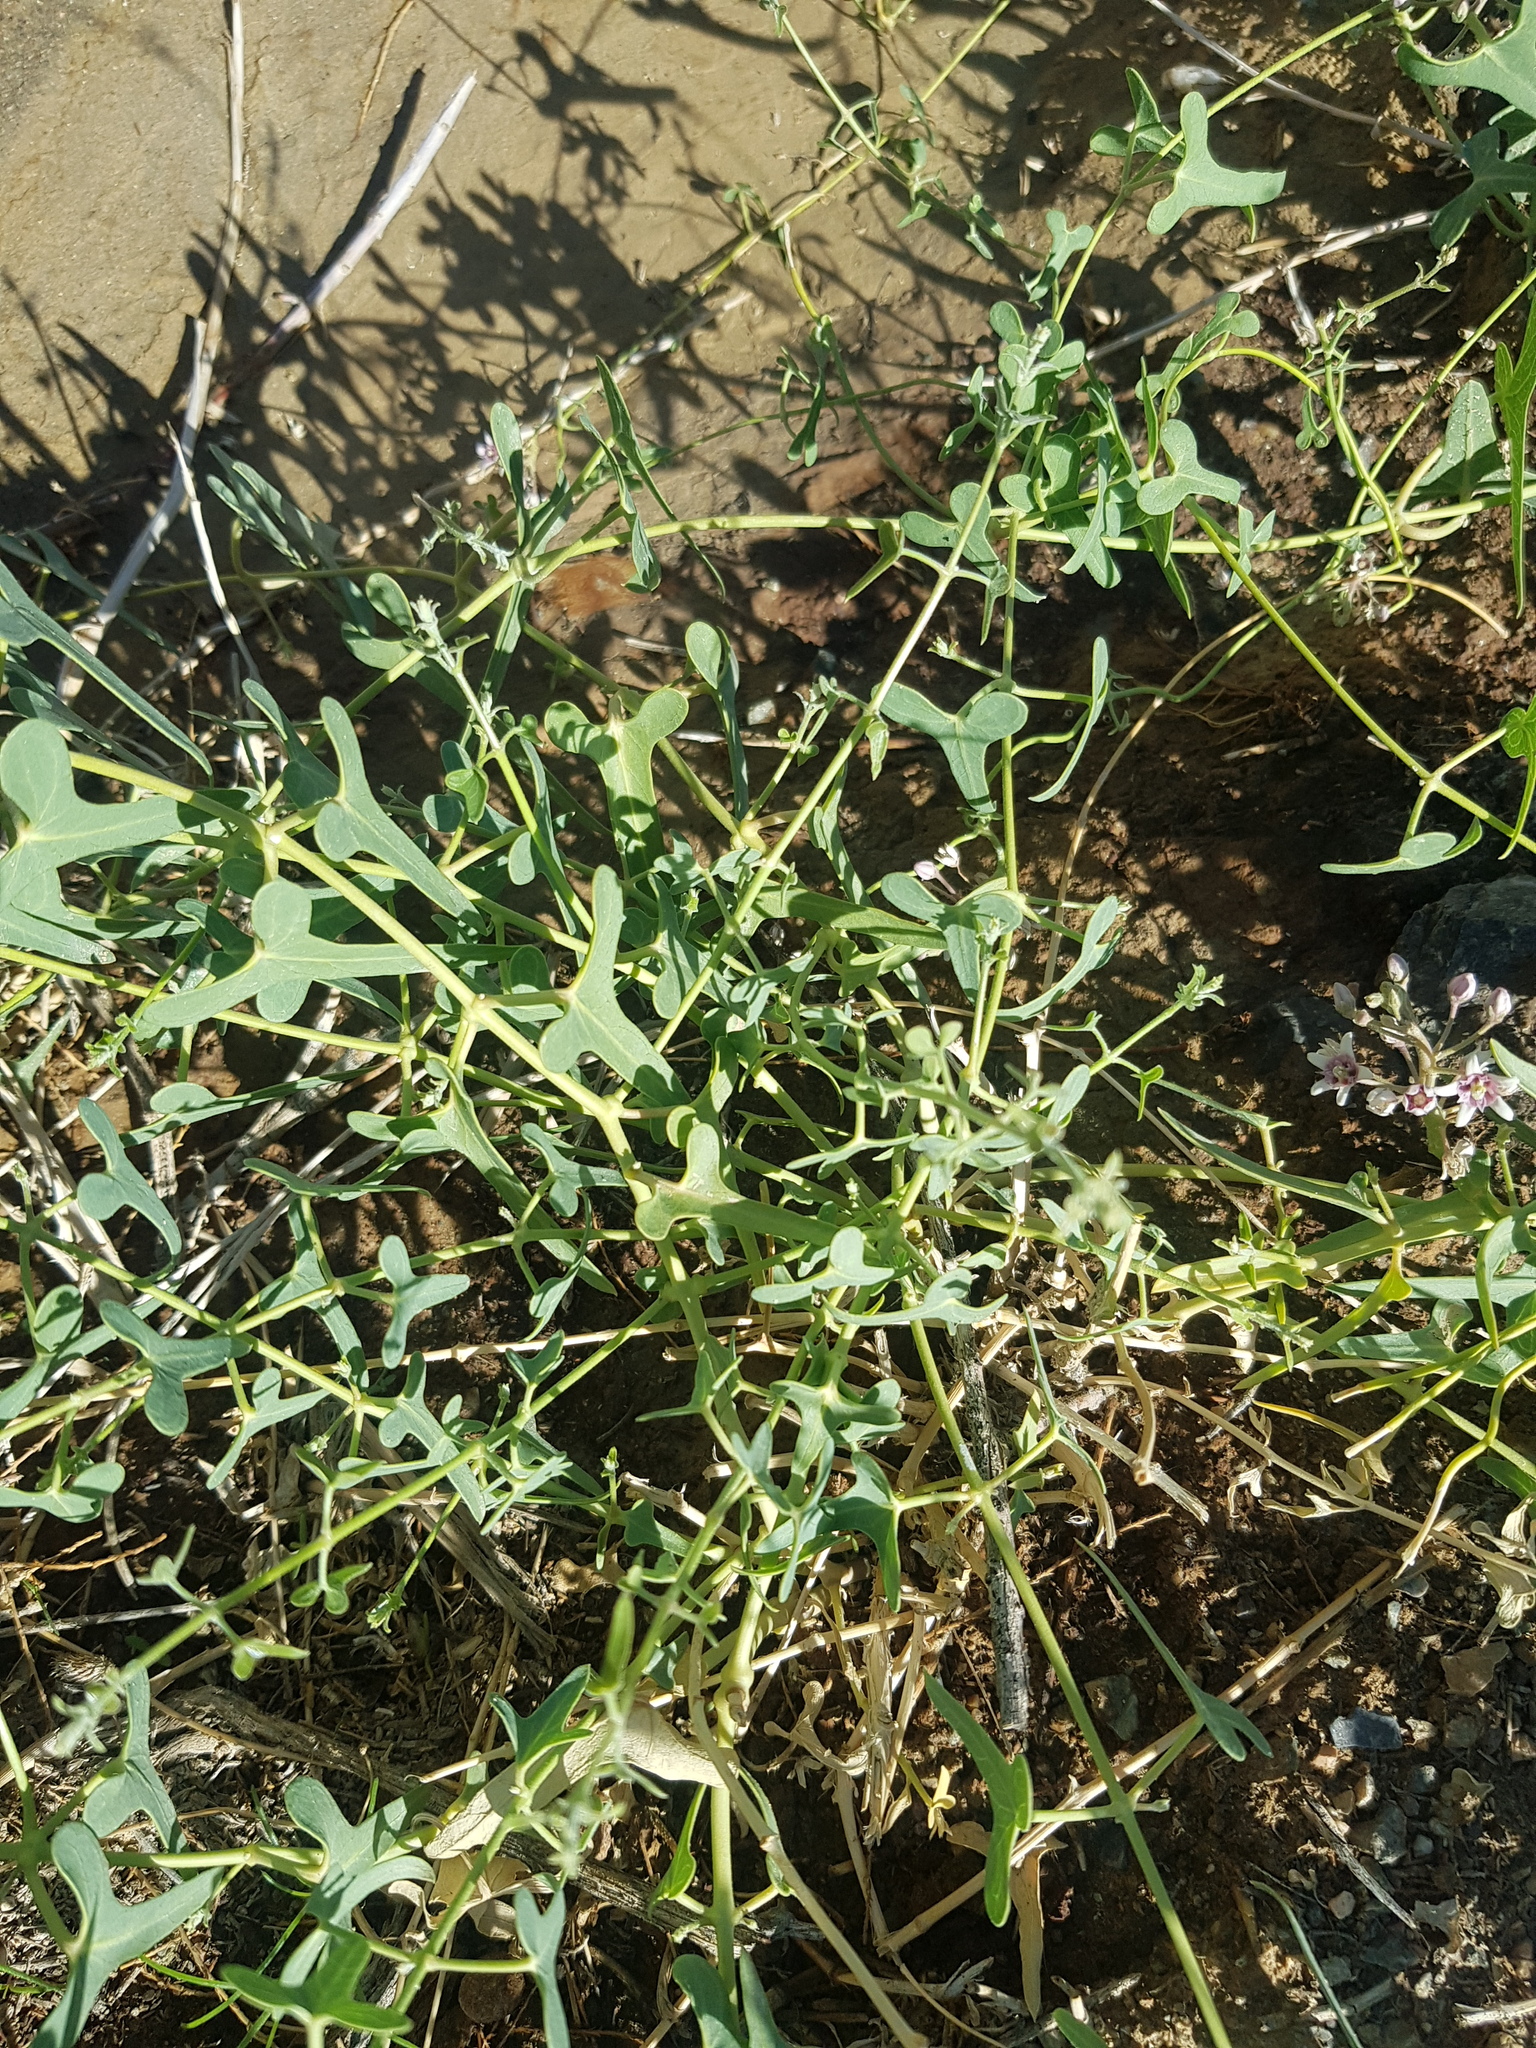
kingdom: Plantae
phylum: Tracheophyta
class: Magnoliopsida
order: Gentianales
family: Apocynaceae
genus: Cynanchum
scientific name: Cynanchum acutum
